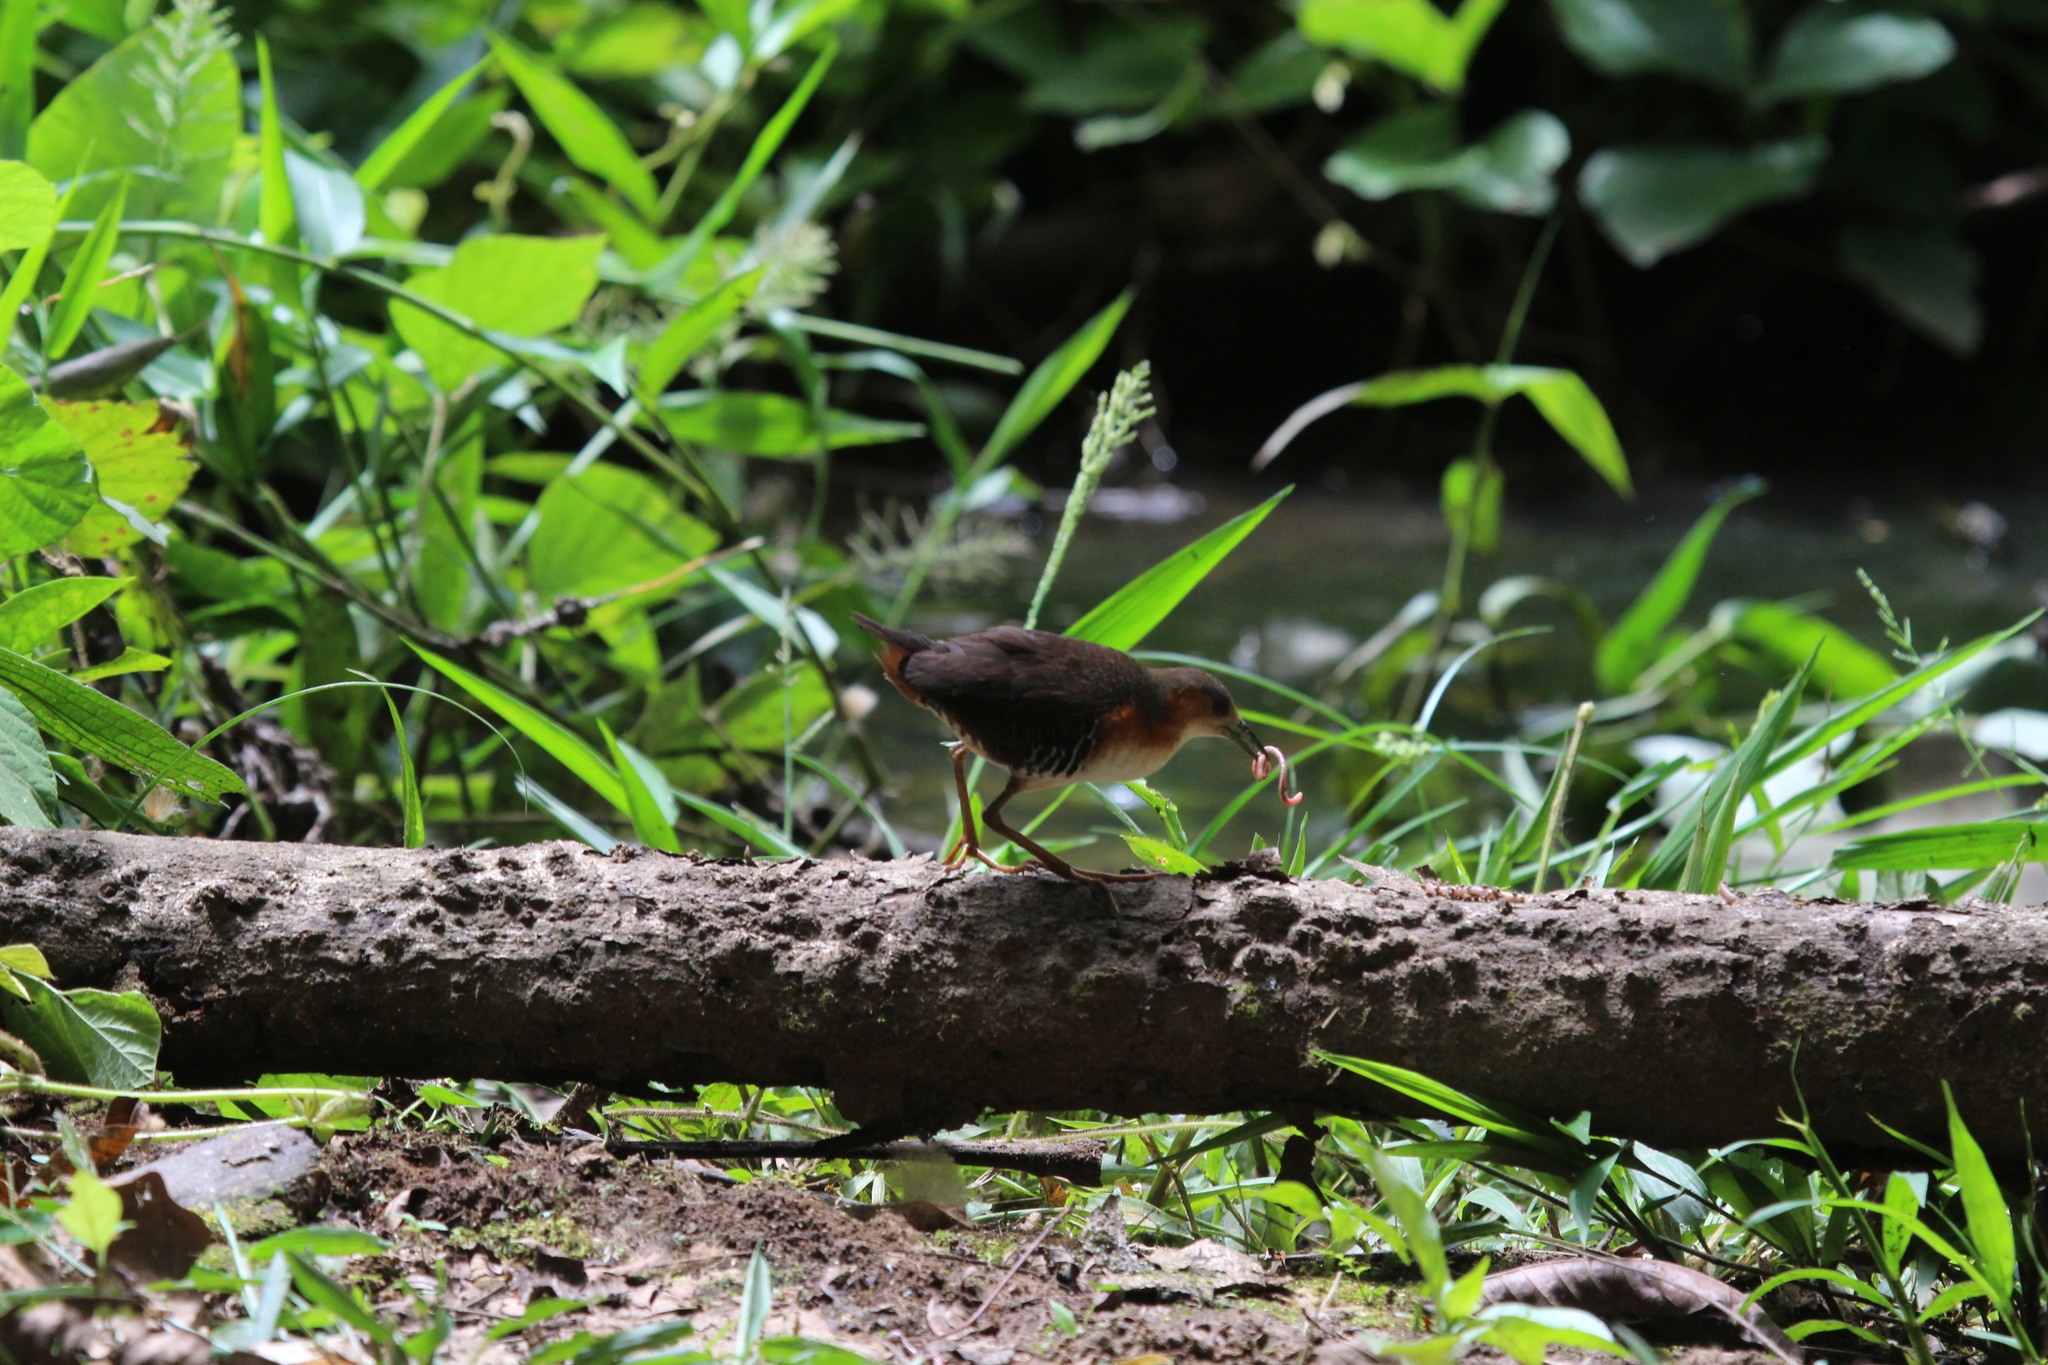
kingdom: Animalia
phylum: Chordata
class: Aves
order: Gruiformes
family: Rallidae
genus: Laterallus
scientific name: Laterallus melanophaius
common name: Rufous-sided crake
